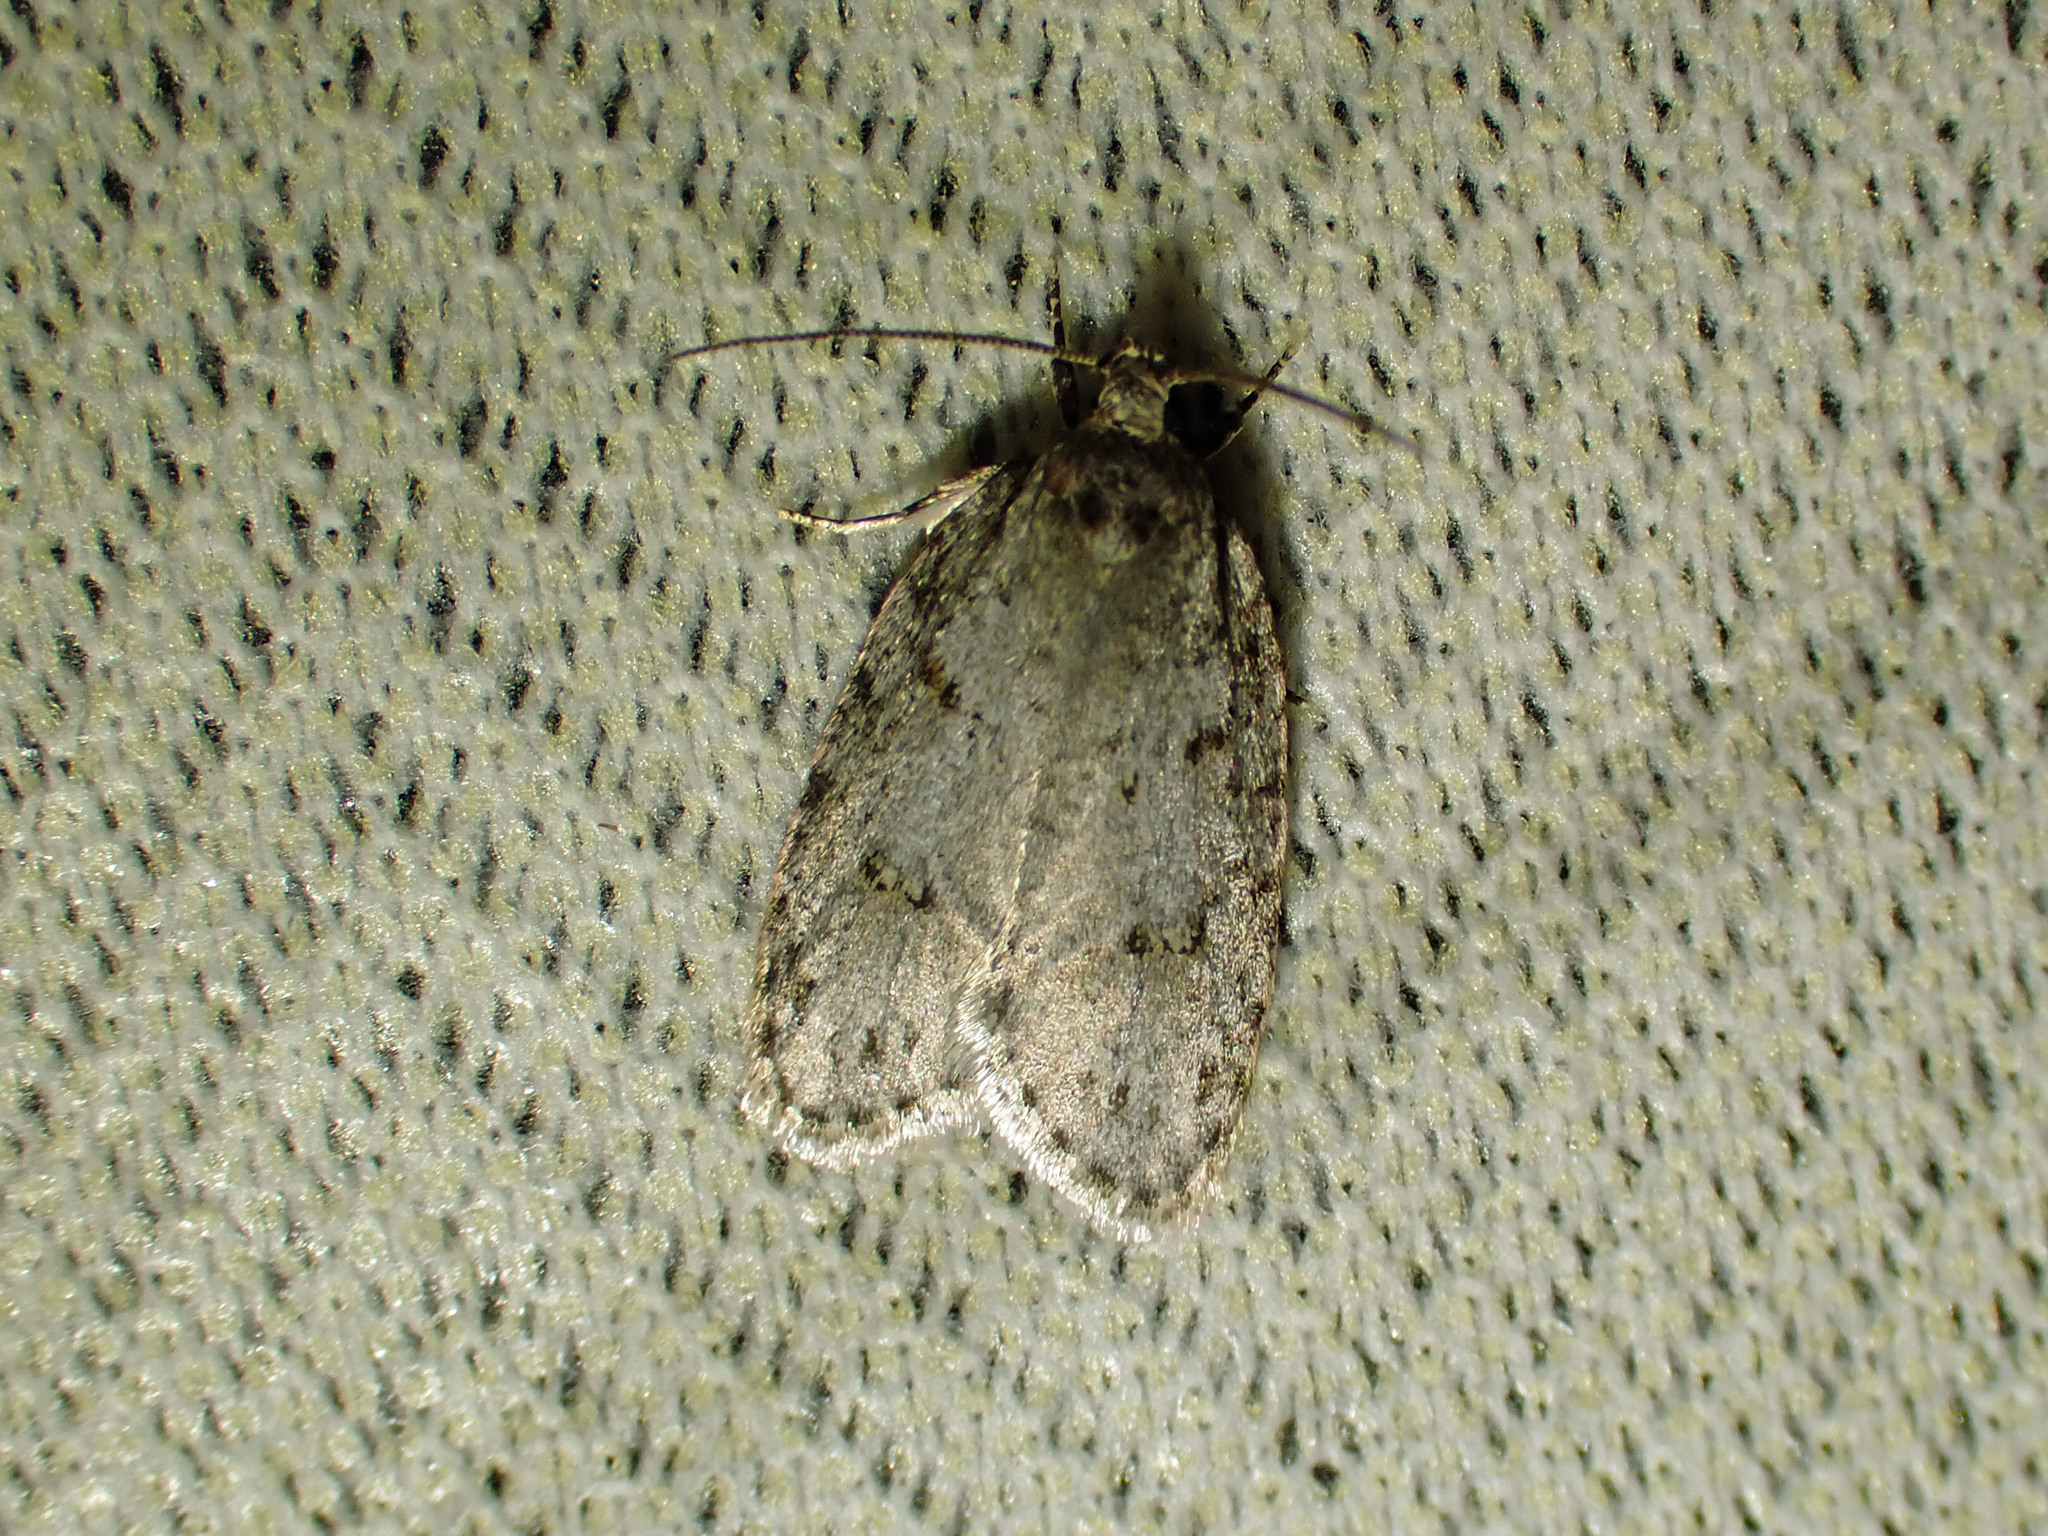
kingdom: Animalia
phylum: Arthropoda
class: Insecta
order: Lepidoptera
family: Depressariidae
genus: Bibarrambla
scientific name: Bibarrambla allenella
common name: Bog bibarrambla moth
